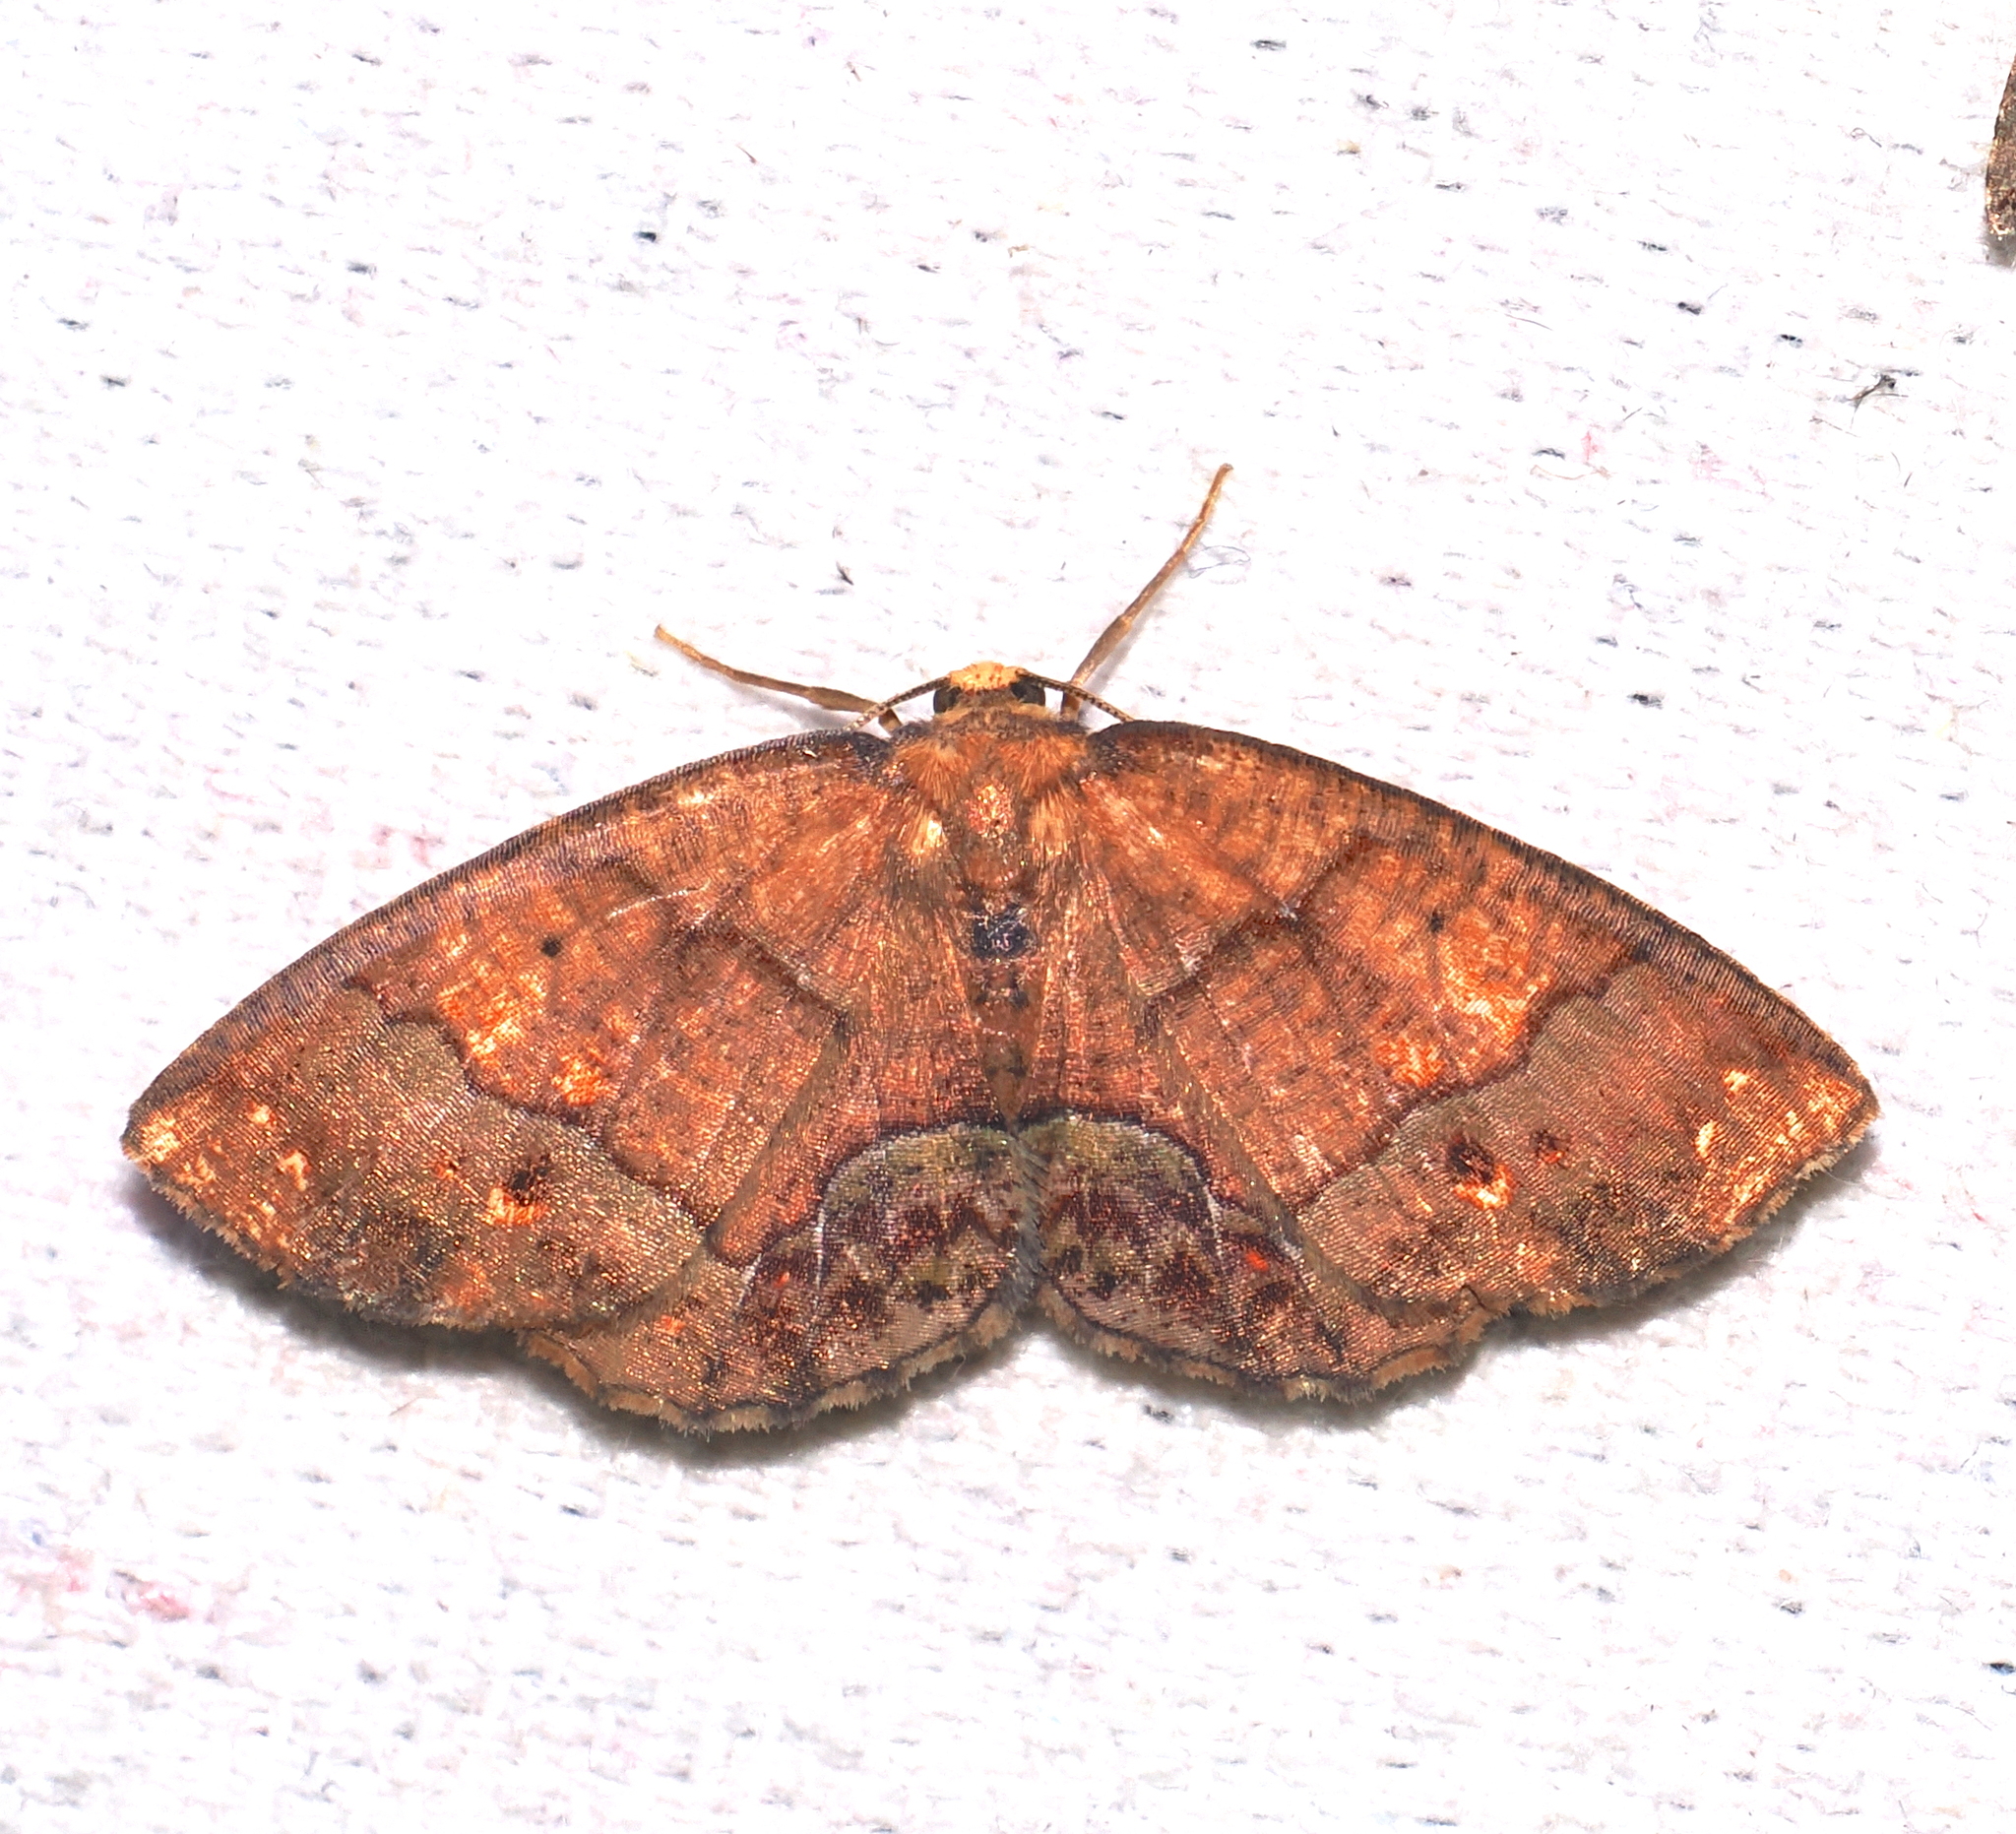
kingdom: Animalia
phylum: Arthropoda
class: Insecta
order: Lepidoptera
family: Geometridae
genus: Melinodes
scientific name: Melinodes cuprina
